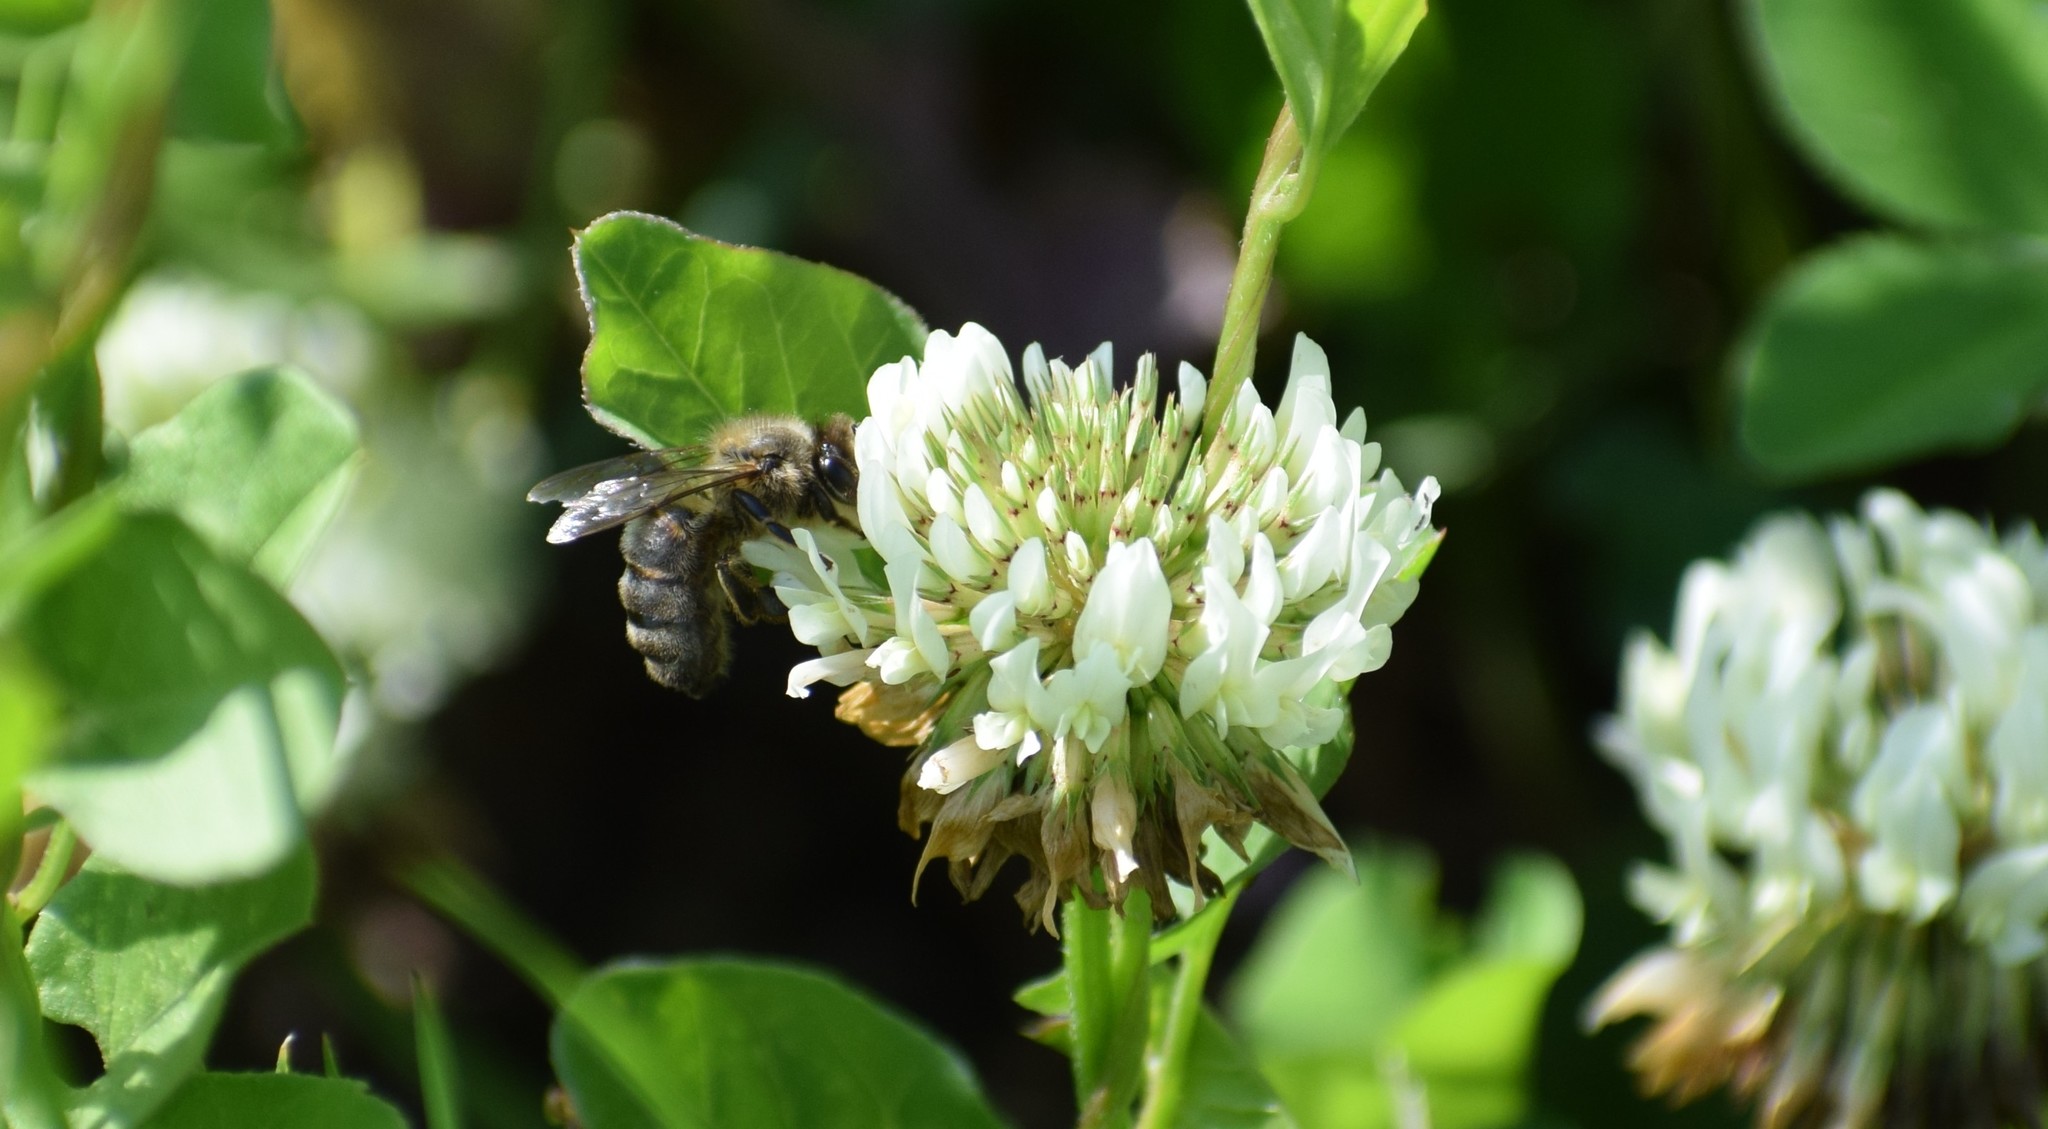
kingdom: Animalia
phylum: Arthropoda
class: Insecta
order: Hymenoptera
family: Apidae
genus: Apis
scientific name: Apis mellifera
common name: Honey bee
